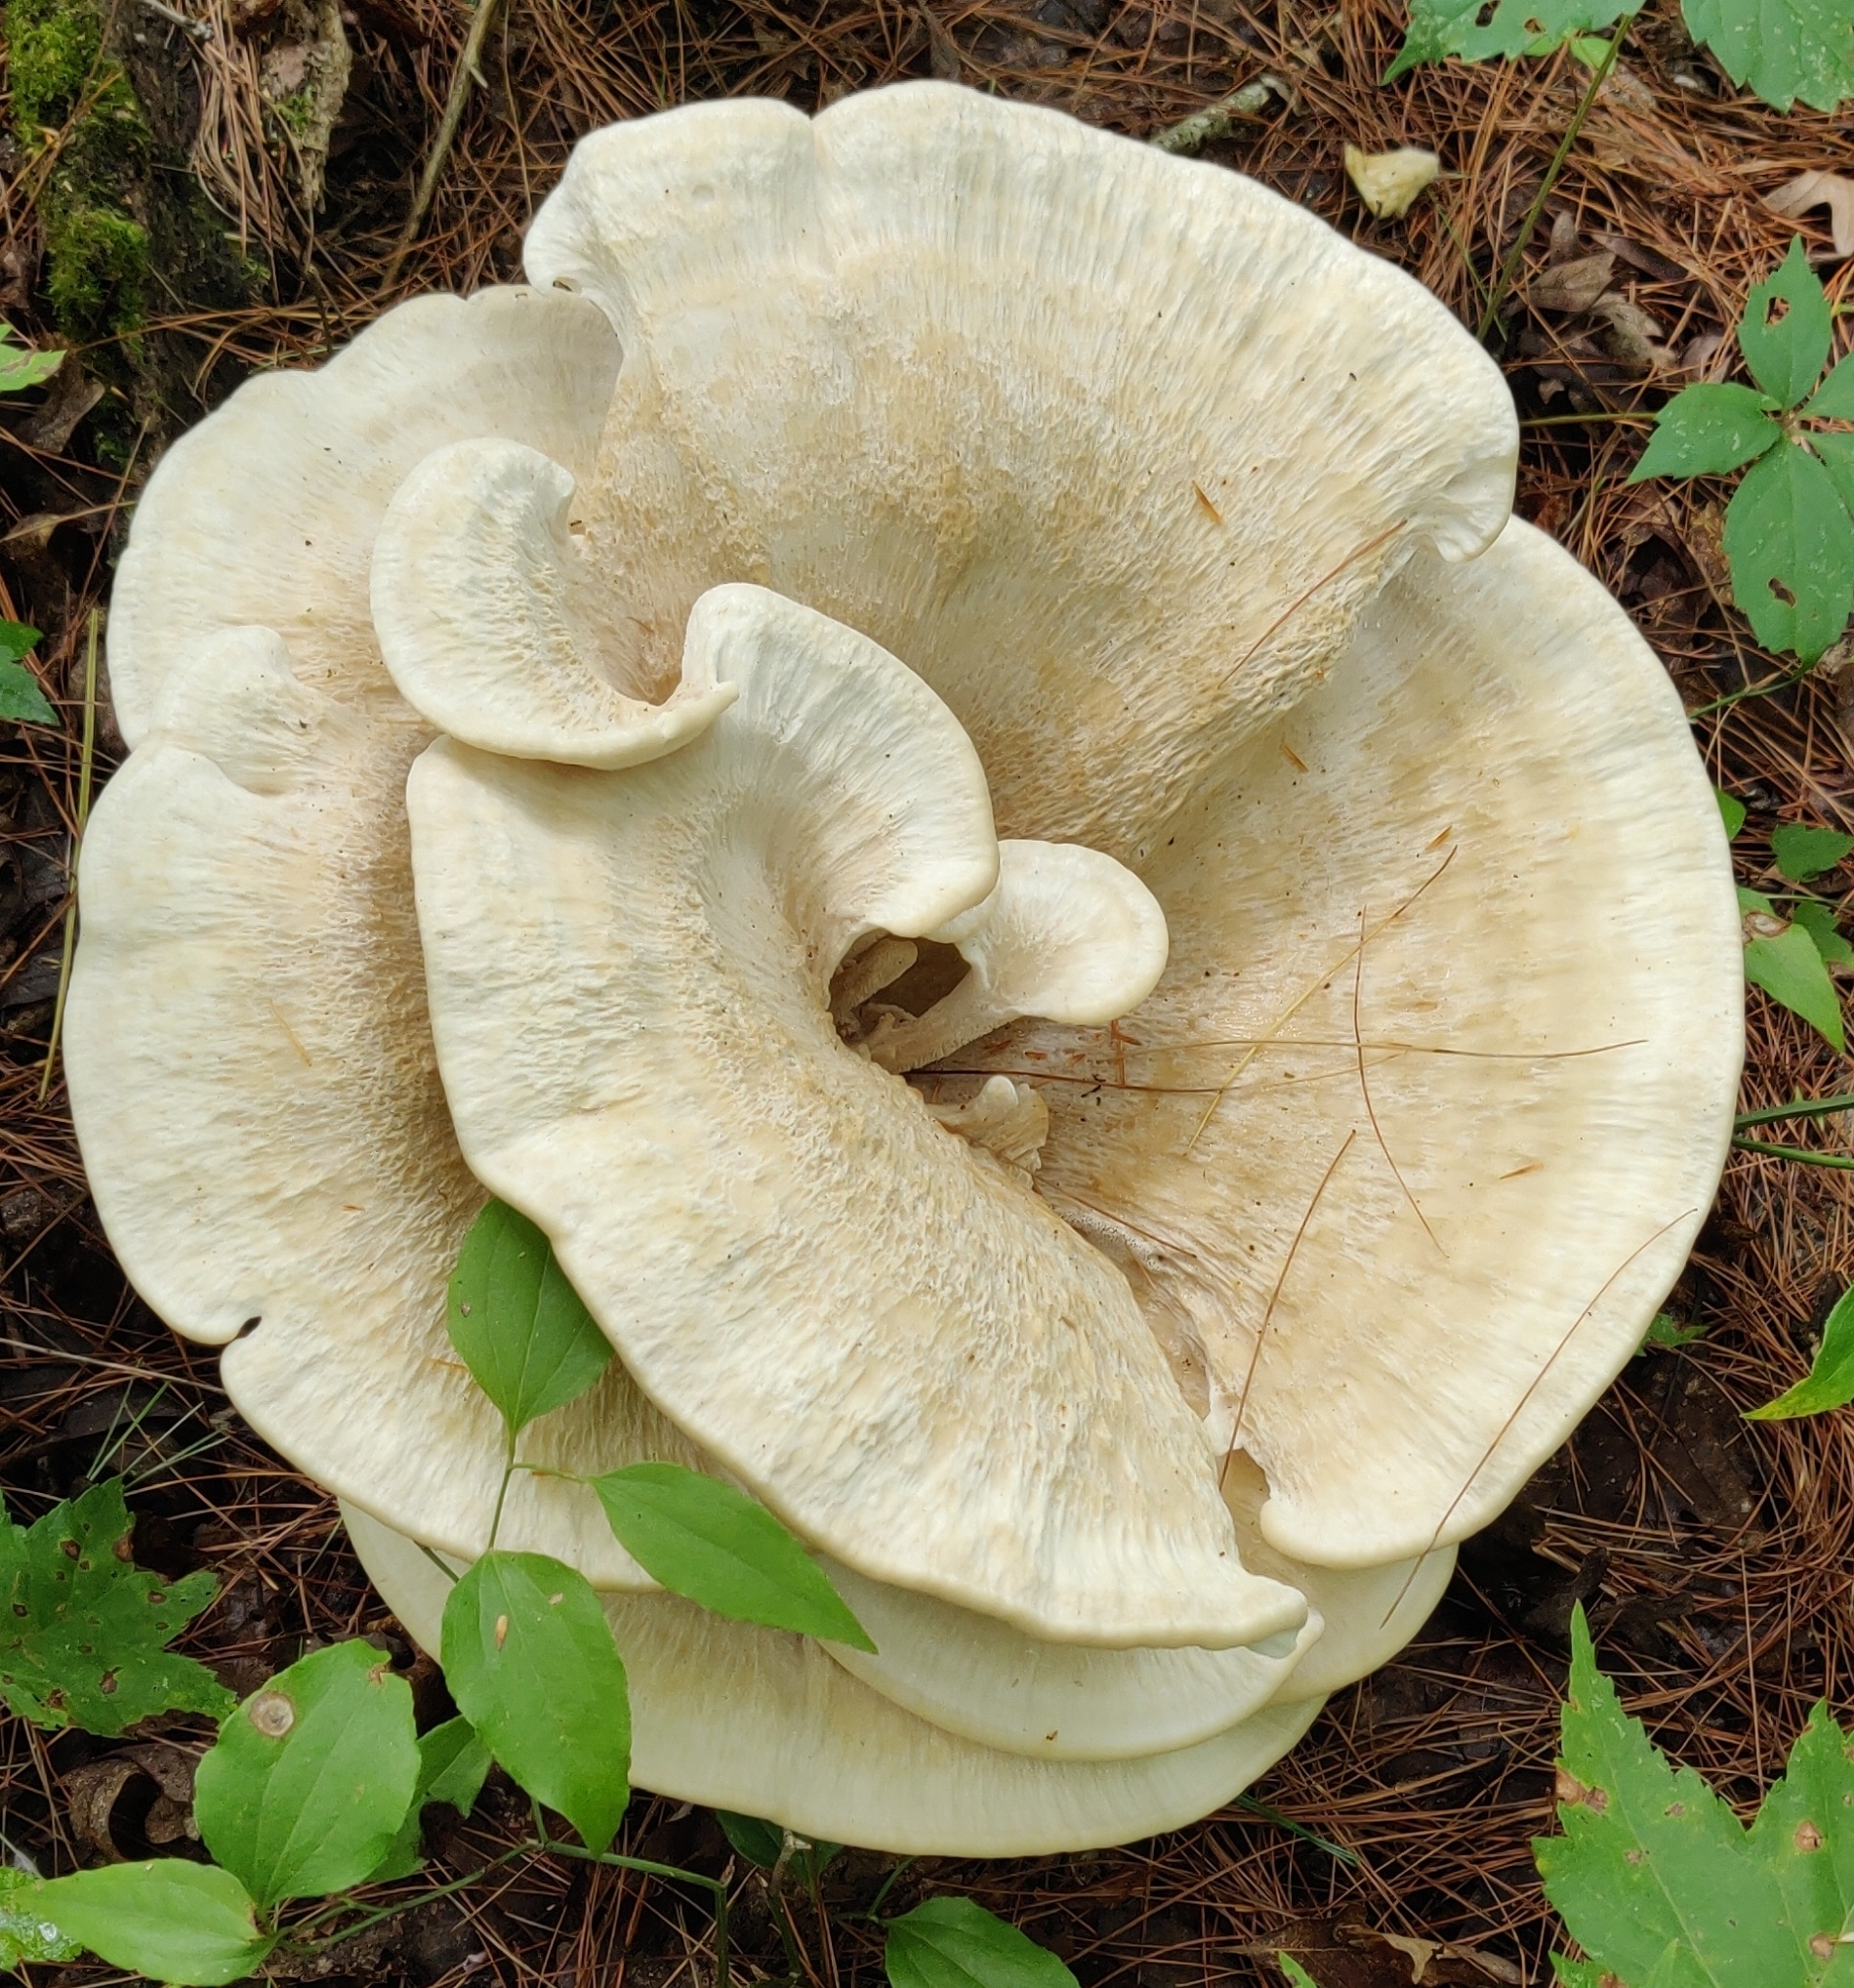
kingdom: Fungi
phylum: Basidiomycota
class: Agaricomycetes
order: Russulales
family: Bondarzewiaceae
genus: Bondarzewia
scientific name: Bondarzewia berkeleyi
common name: Berkeley's polypore
